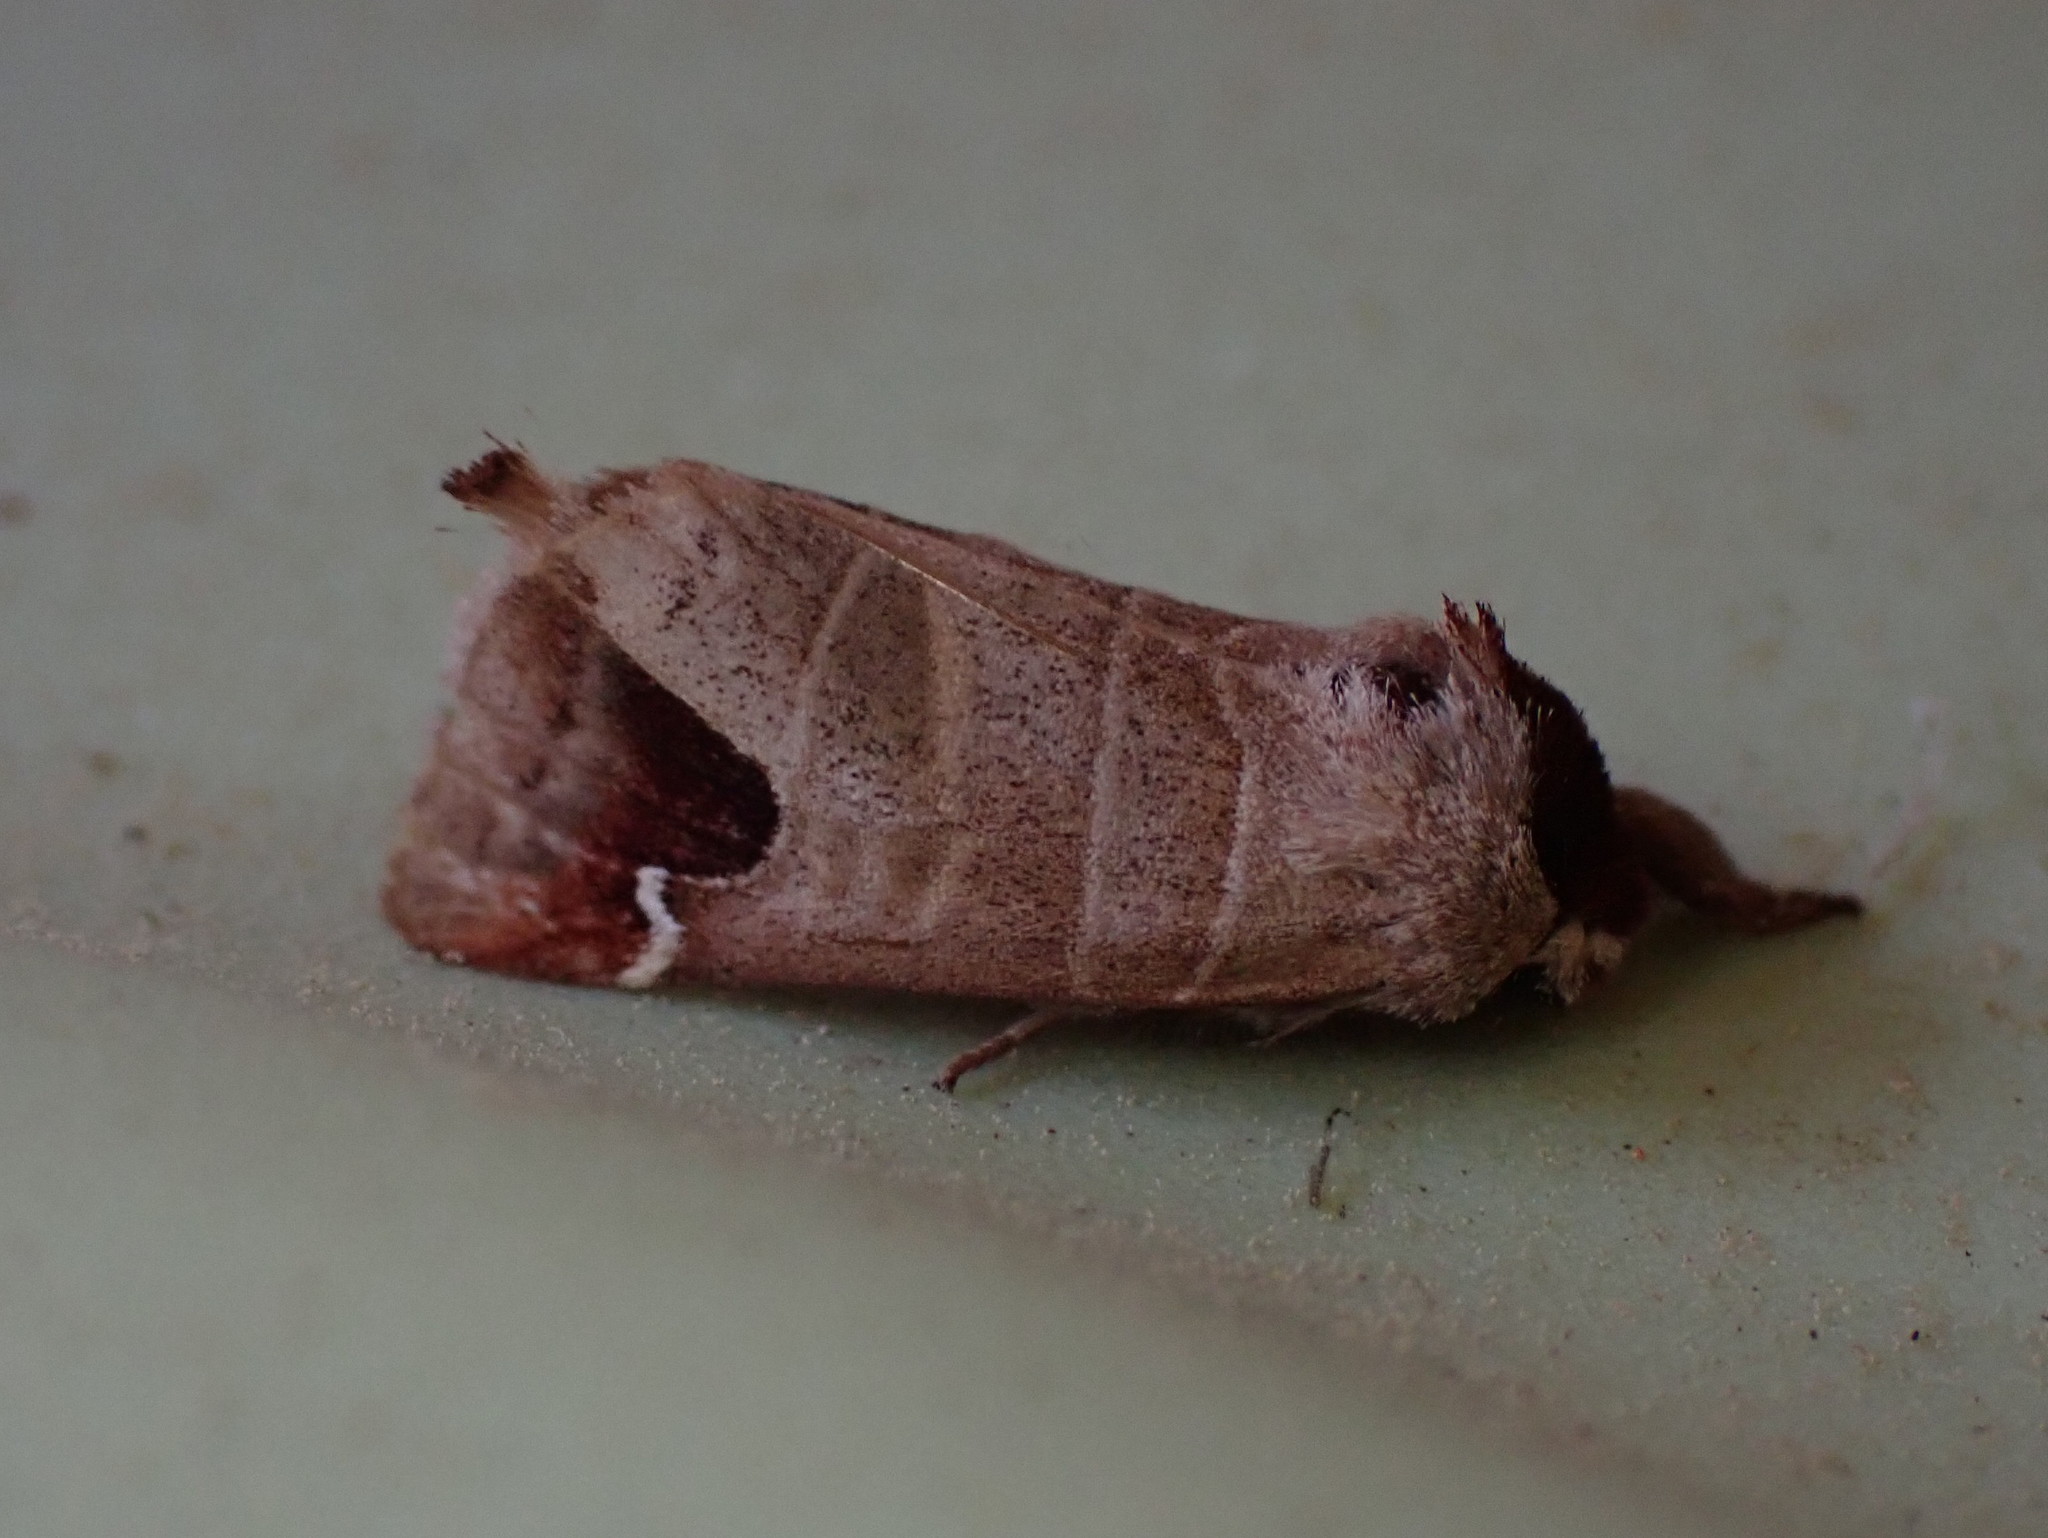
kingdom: Animalia
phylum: Arthropoda
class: Insecta
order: Lepidoptera
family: Notodontidae
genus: Clostera
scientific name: Clostera albosigma
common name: Sigmoid prominent
